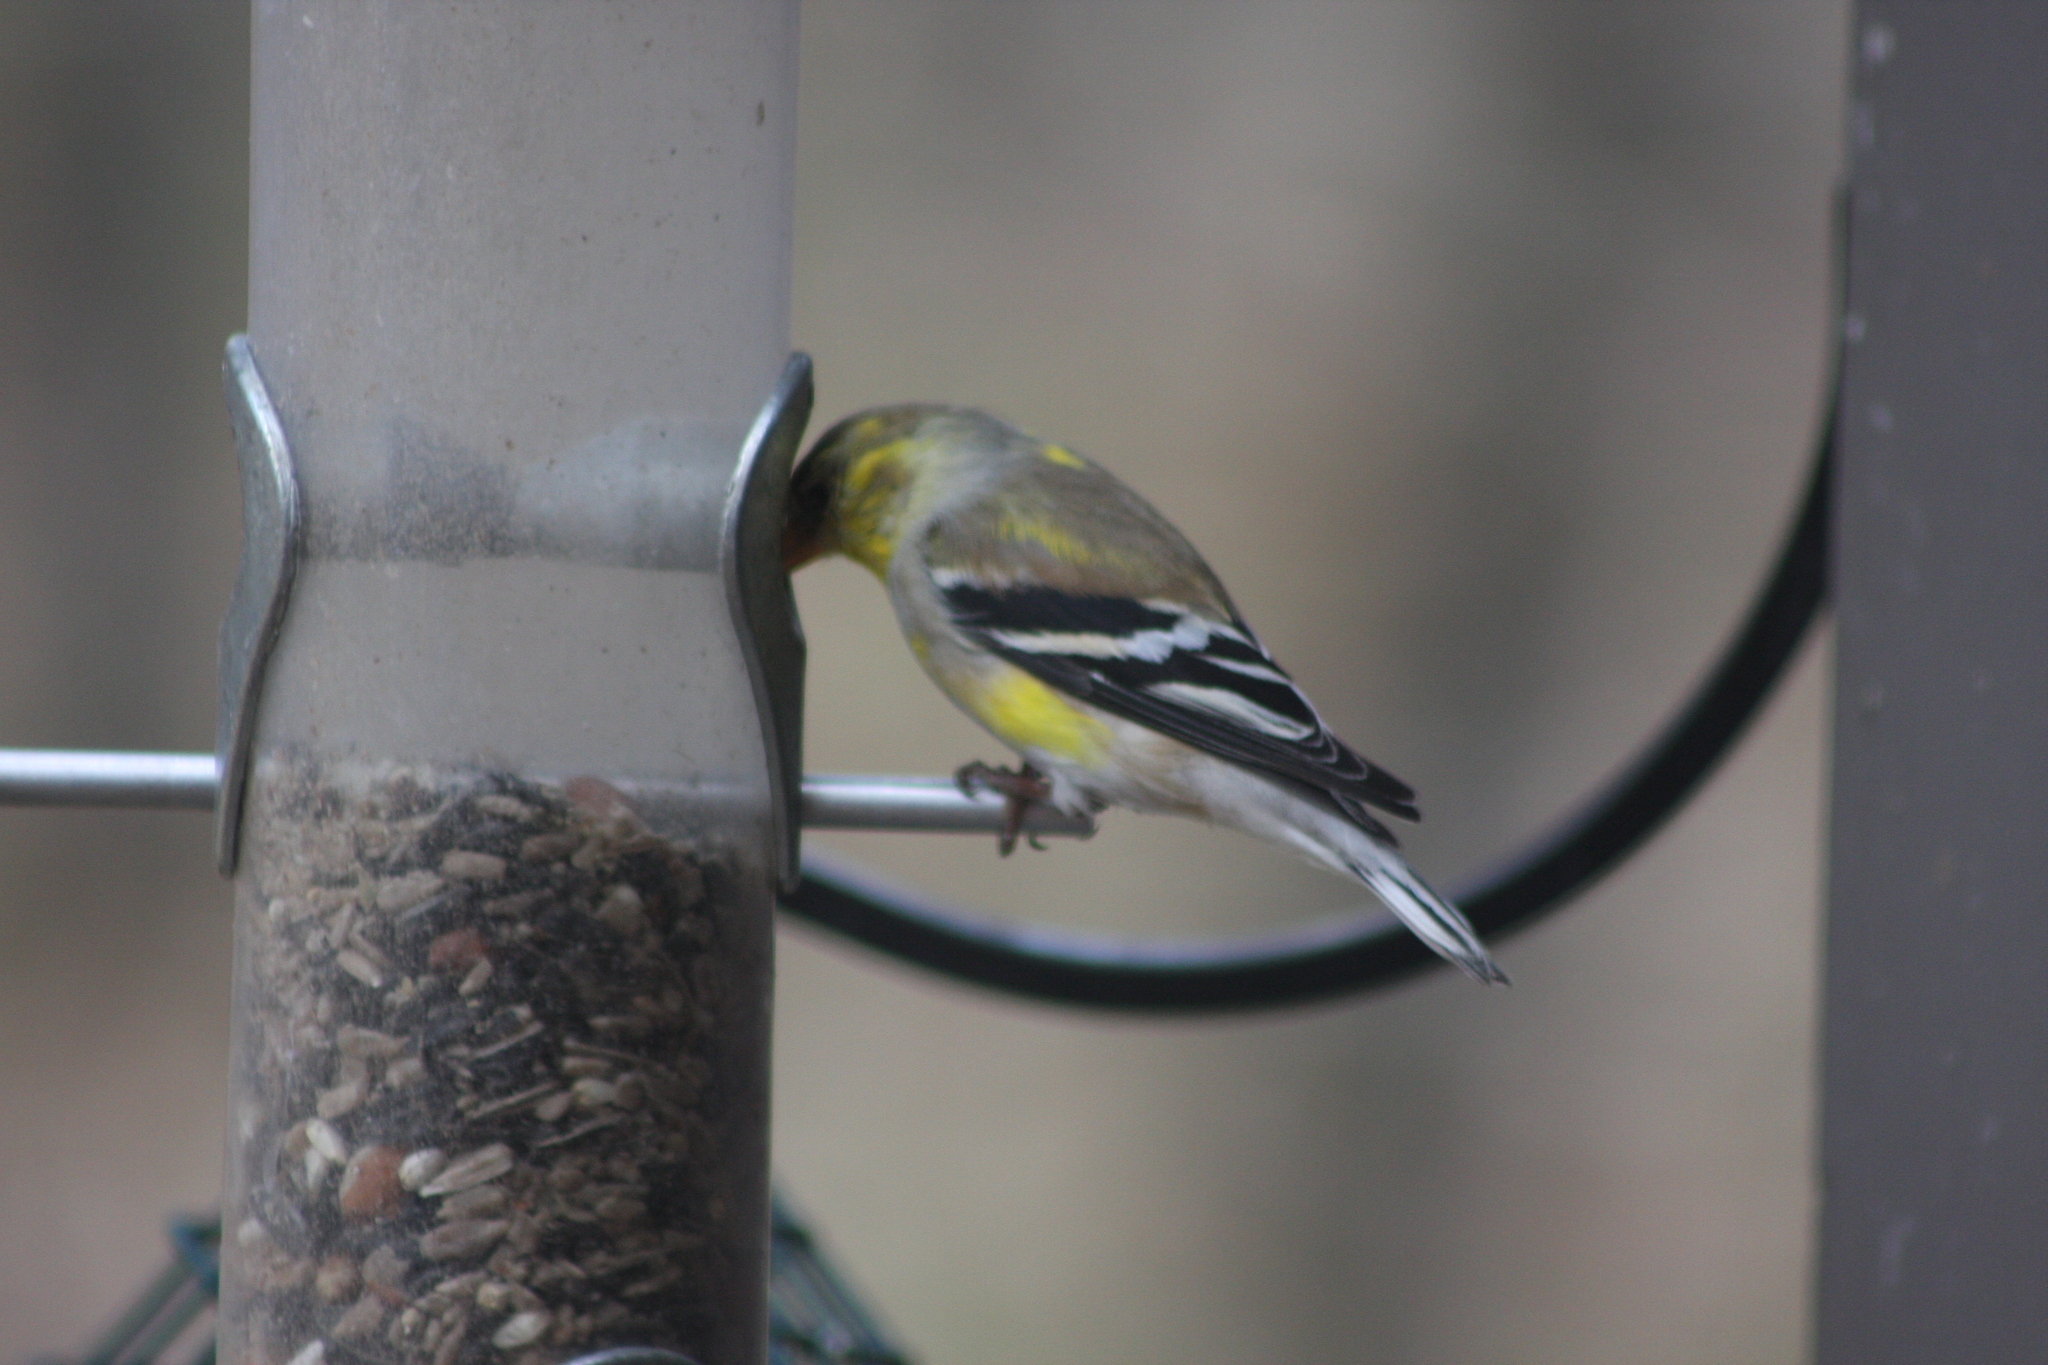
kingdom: Animalia
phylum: Chordata
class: Aves
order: Passeriformes
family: Fringillidae
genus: Spinus
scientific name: Spinus tristis
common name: American goldfinch
